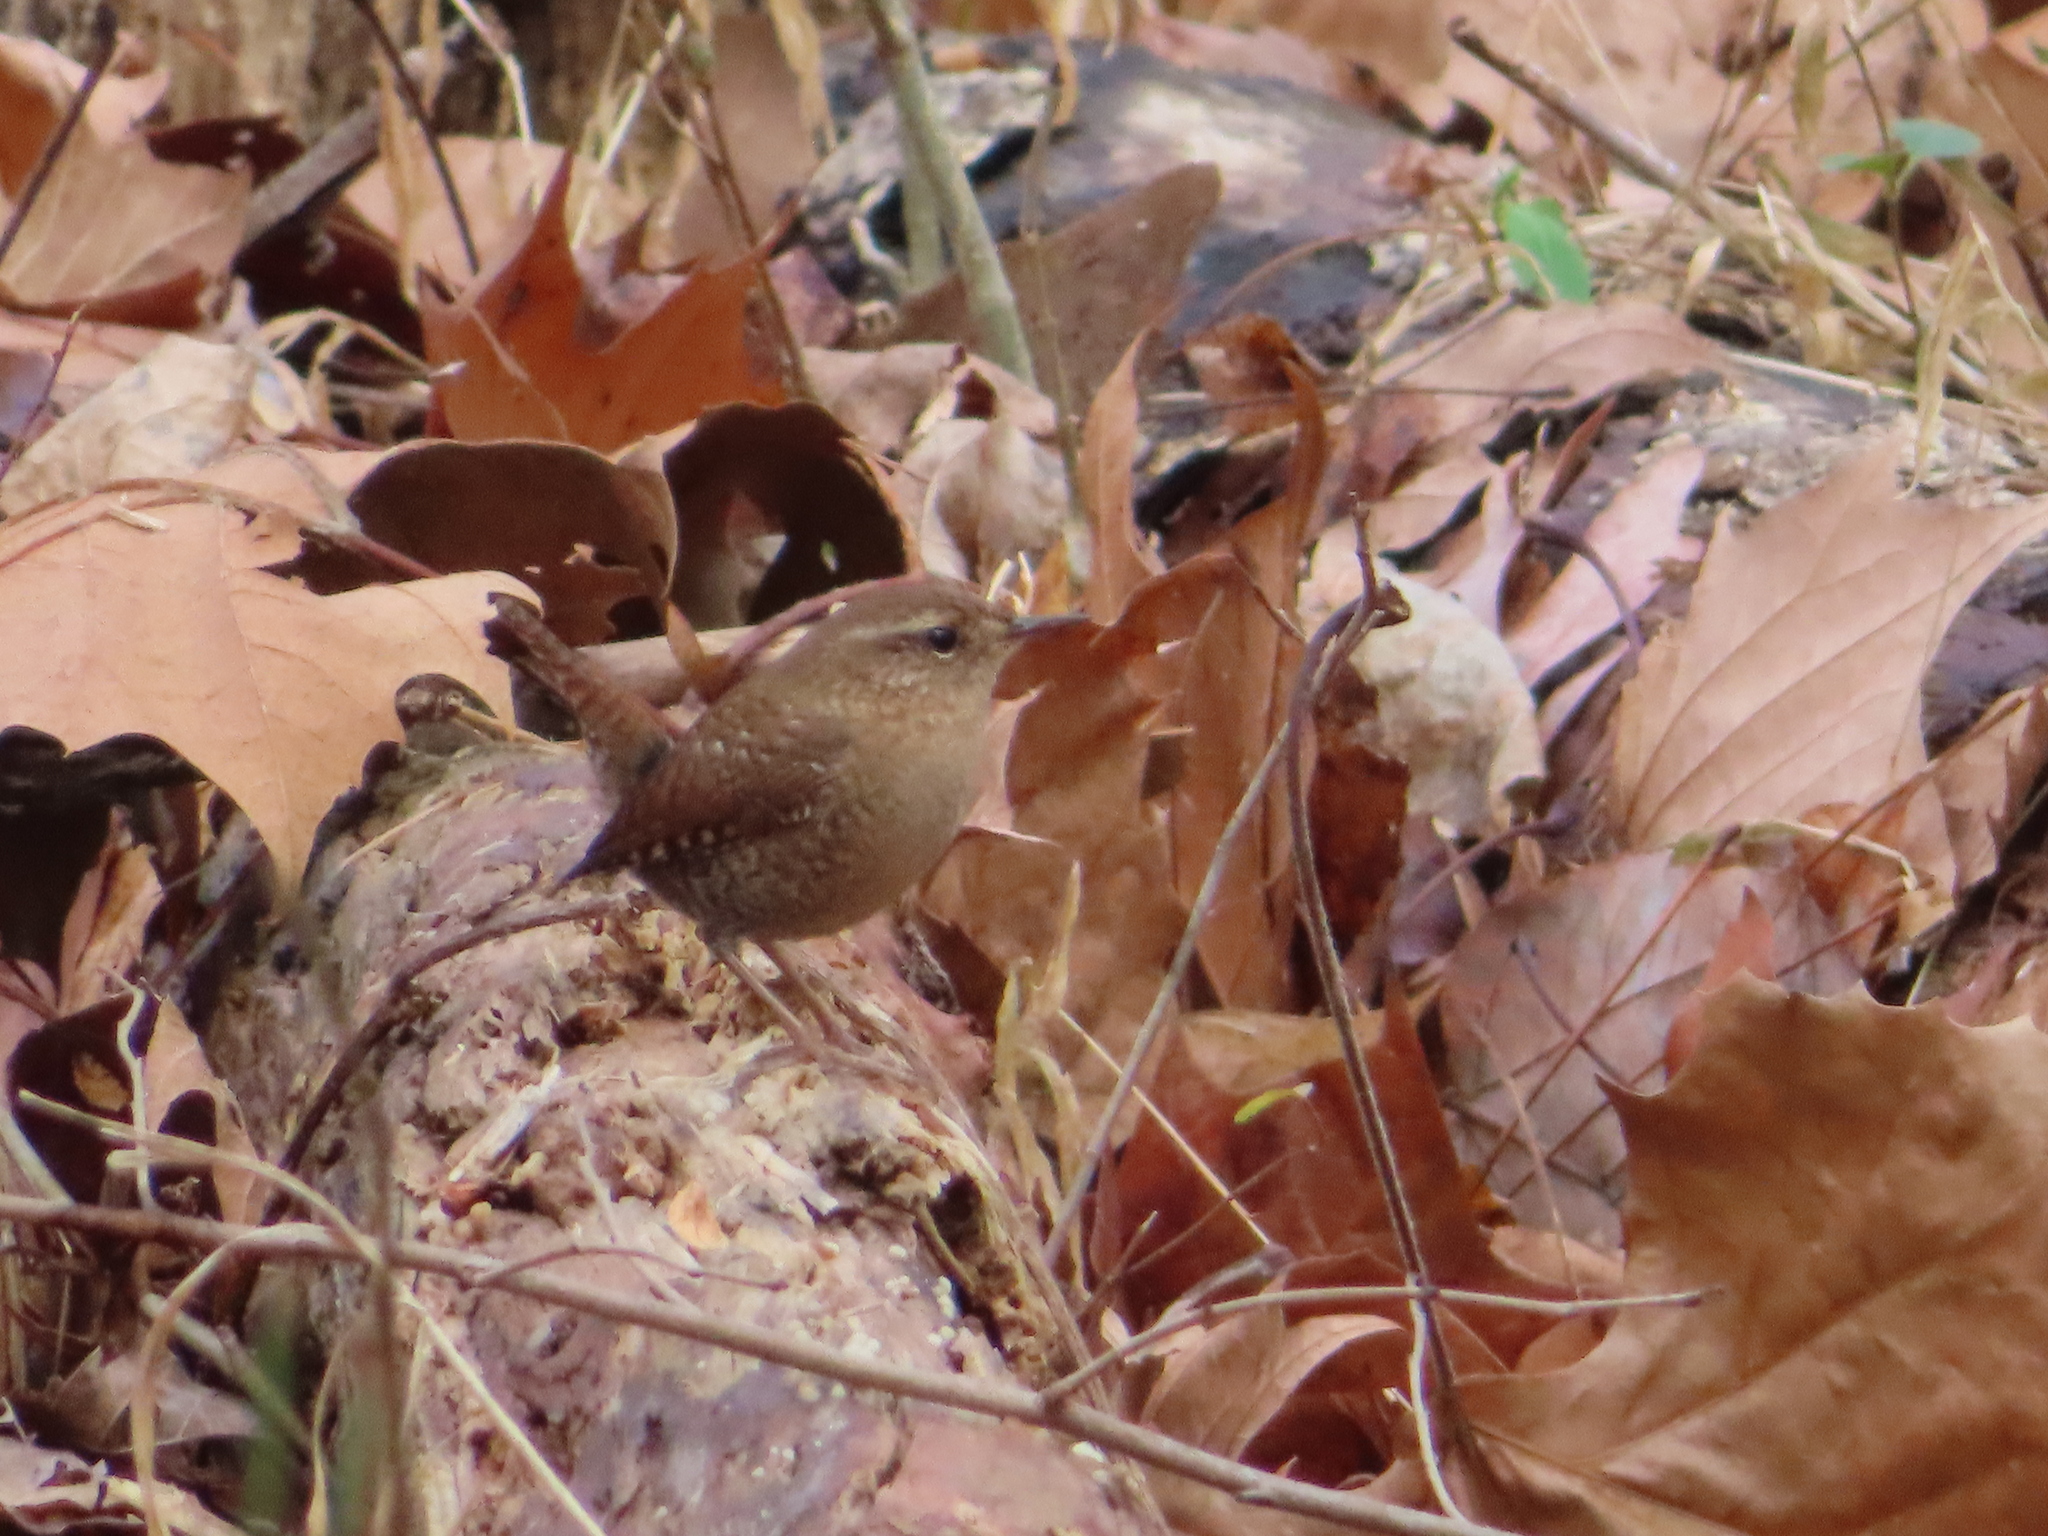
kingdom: Animalia
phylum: Chordata
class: Aves
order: Passeriformes
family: Troglodytidae
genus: Troglodytes
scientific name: Troglodytes hiemalis
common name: Winter wren
